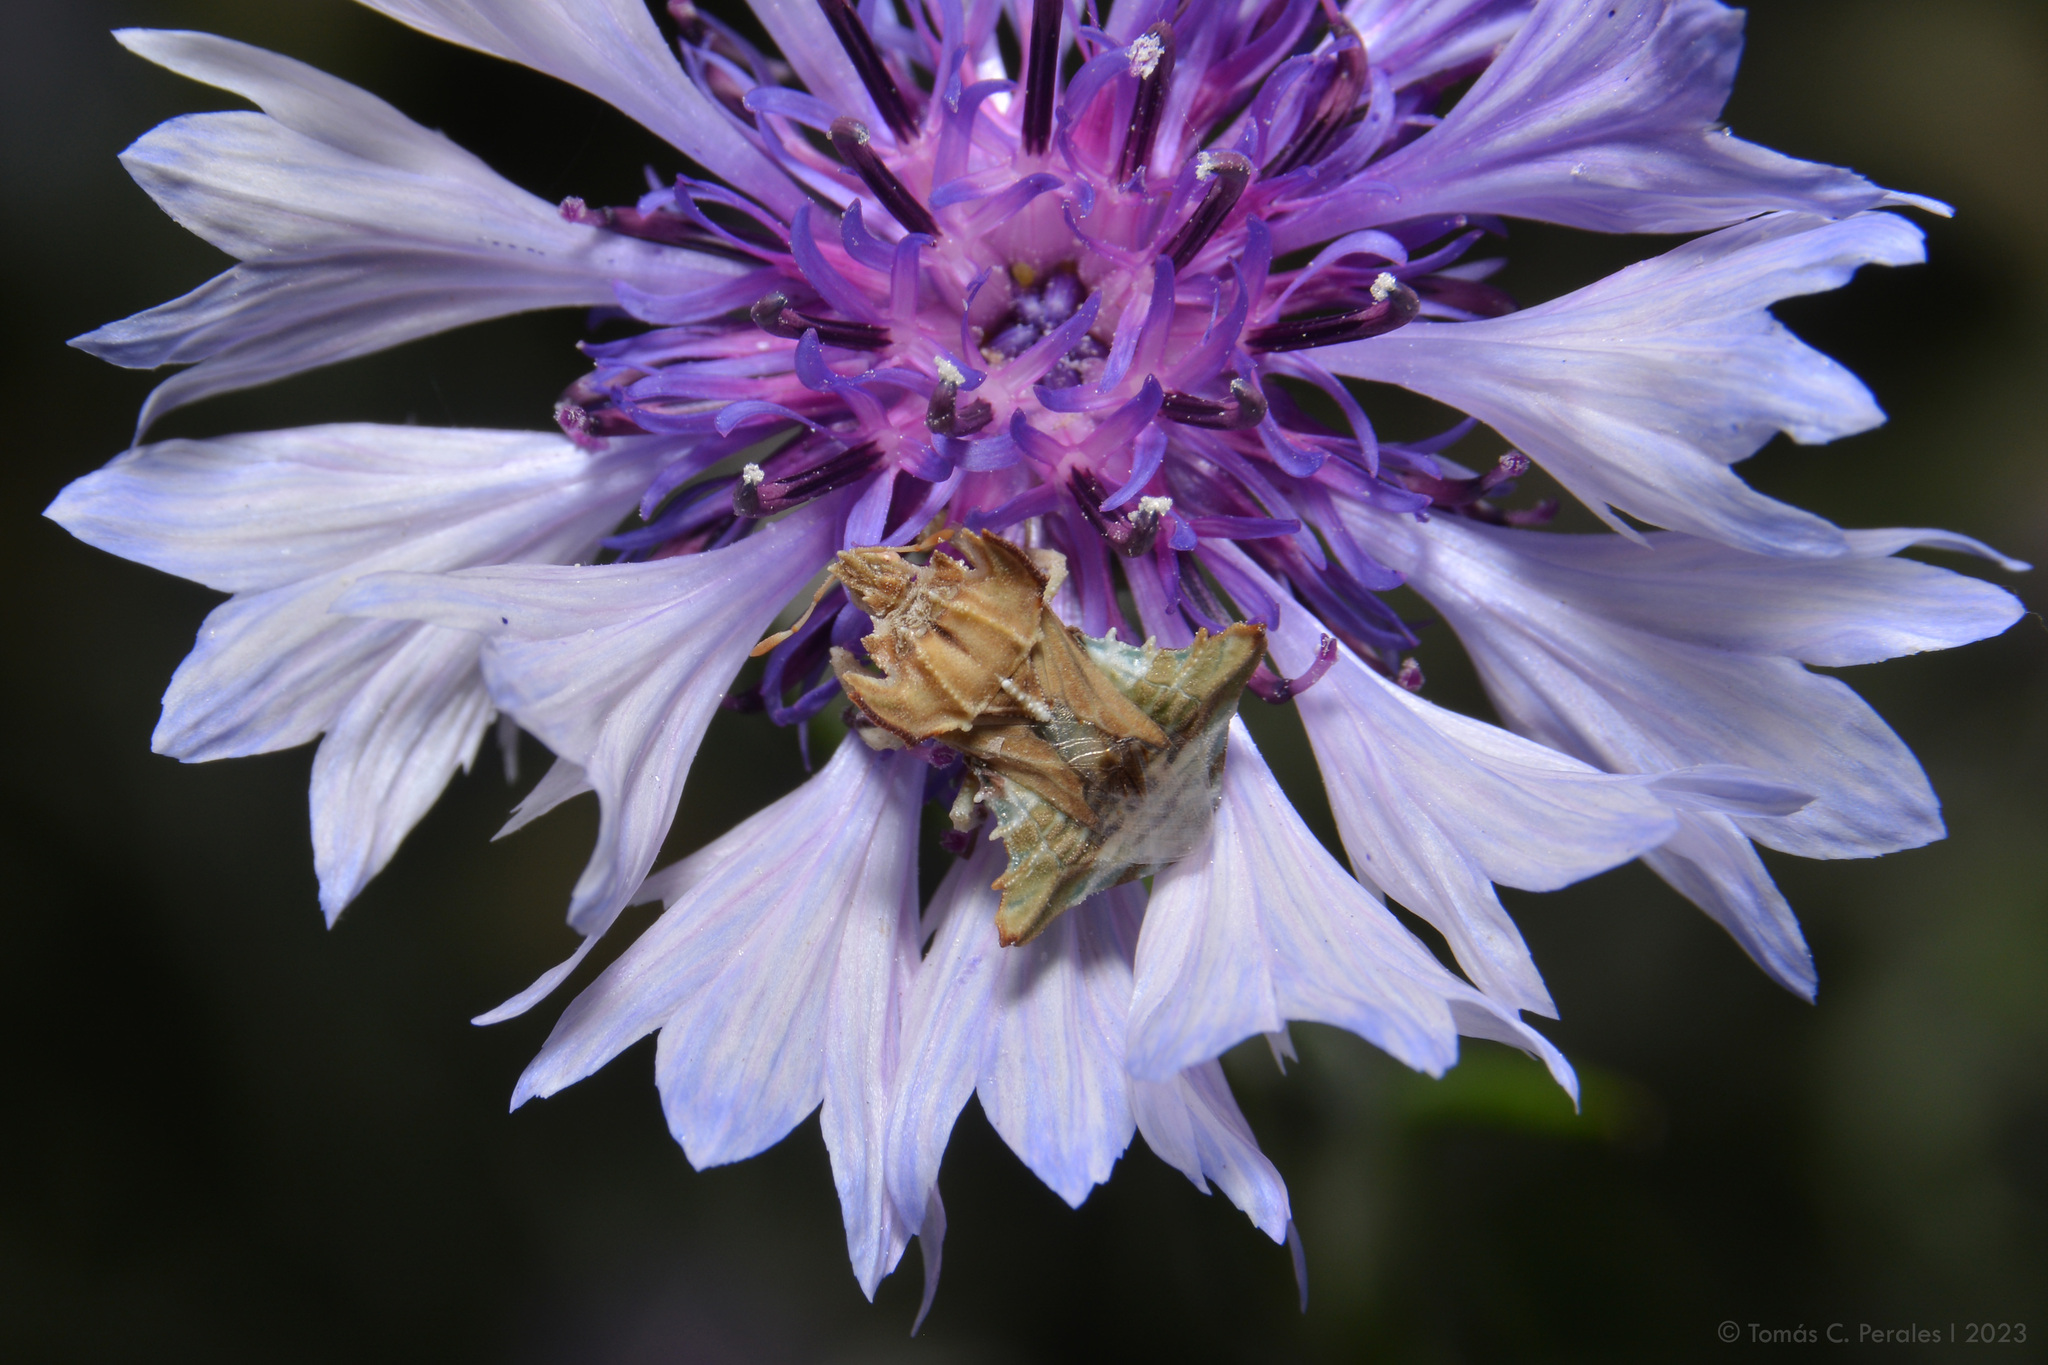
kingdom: Plantae
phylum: Tracheophyta
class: Magnoliopsida
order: Asterales
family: Asteraceae
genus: Centaurea
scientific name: Centaurea cyanus
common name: Cornflower
